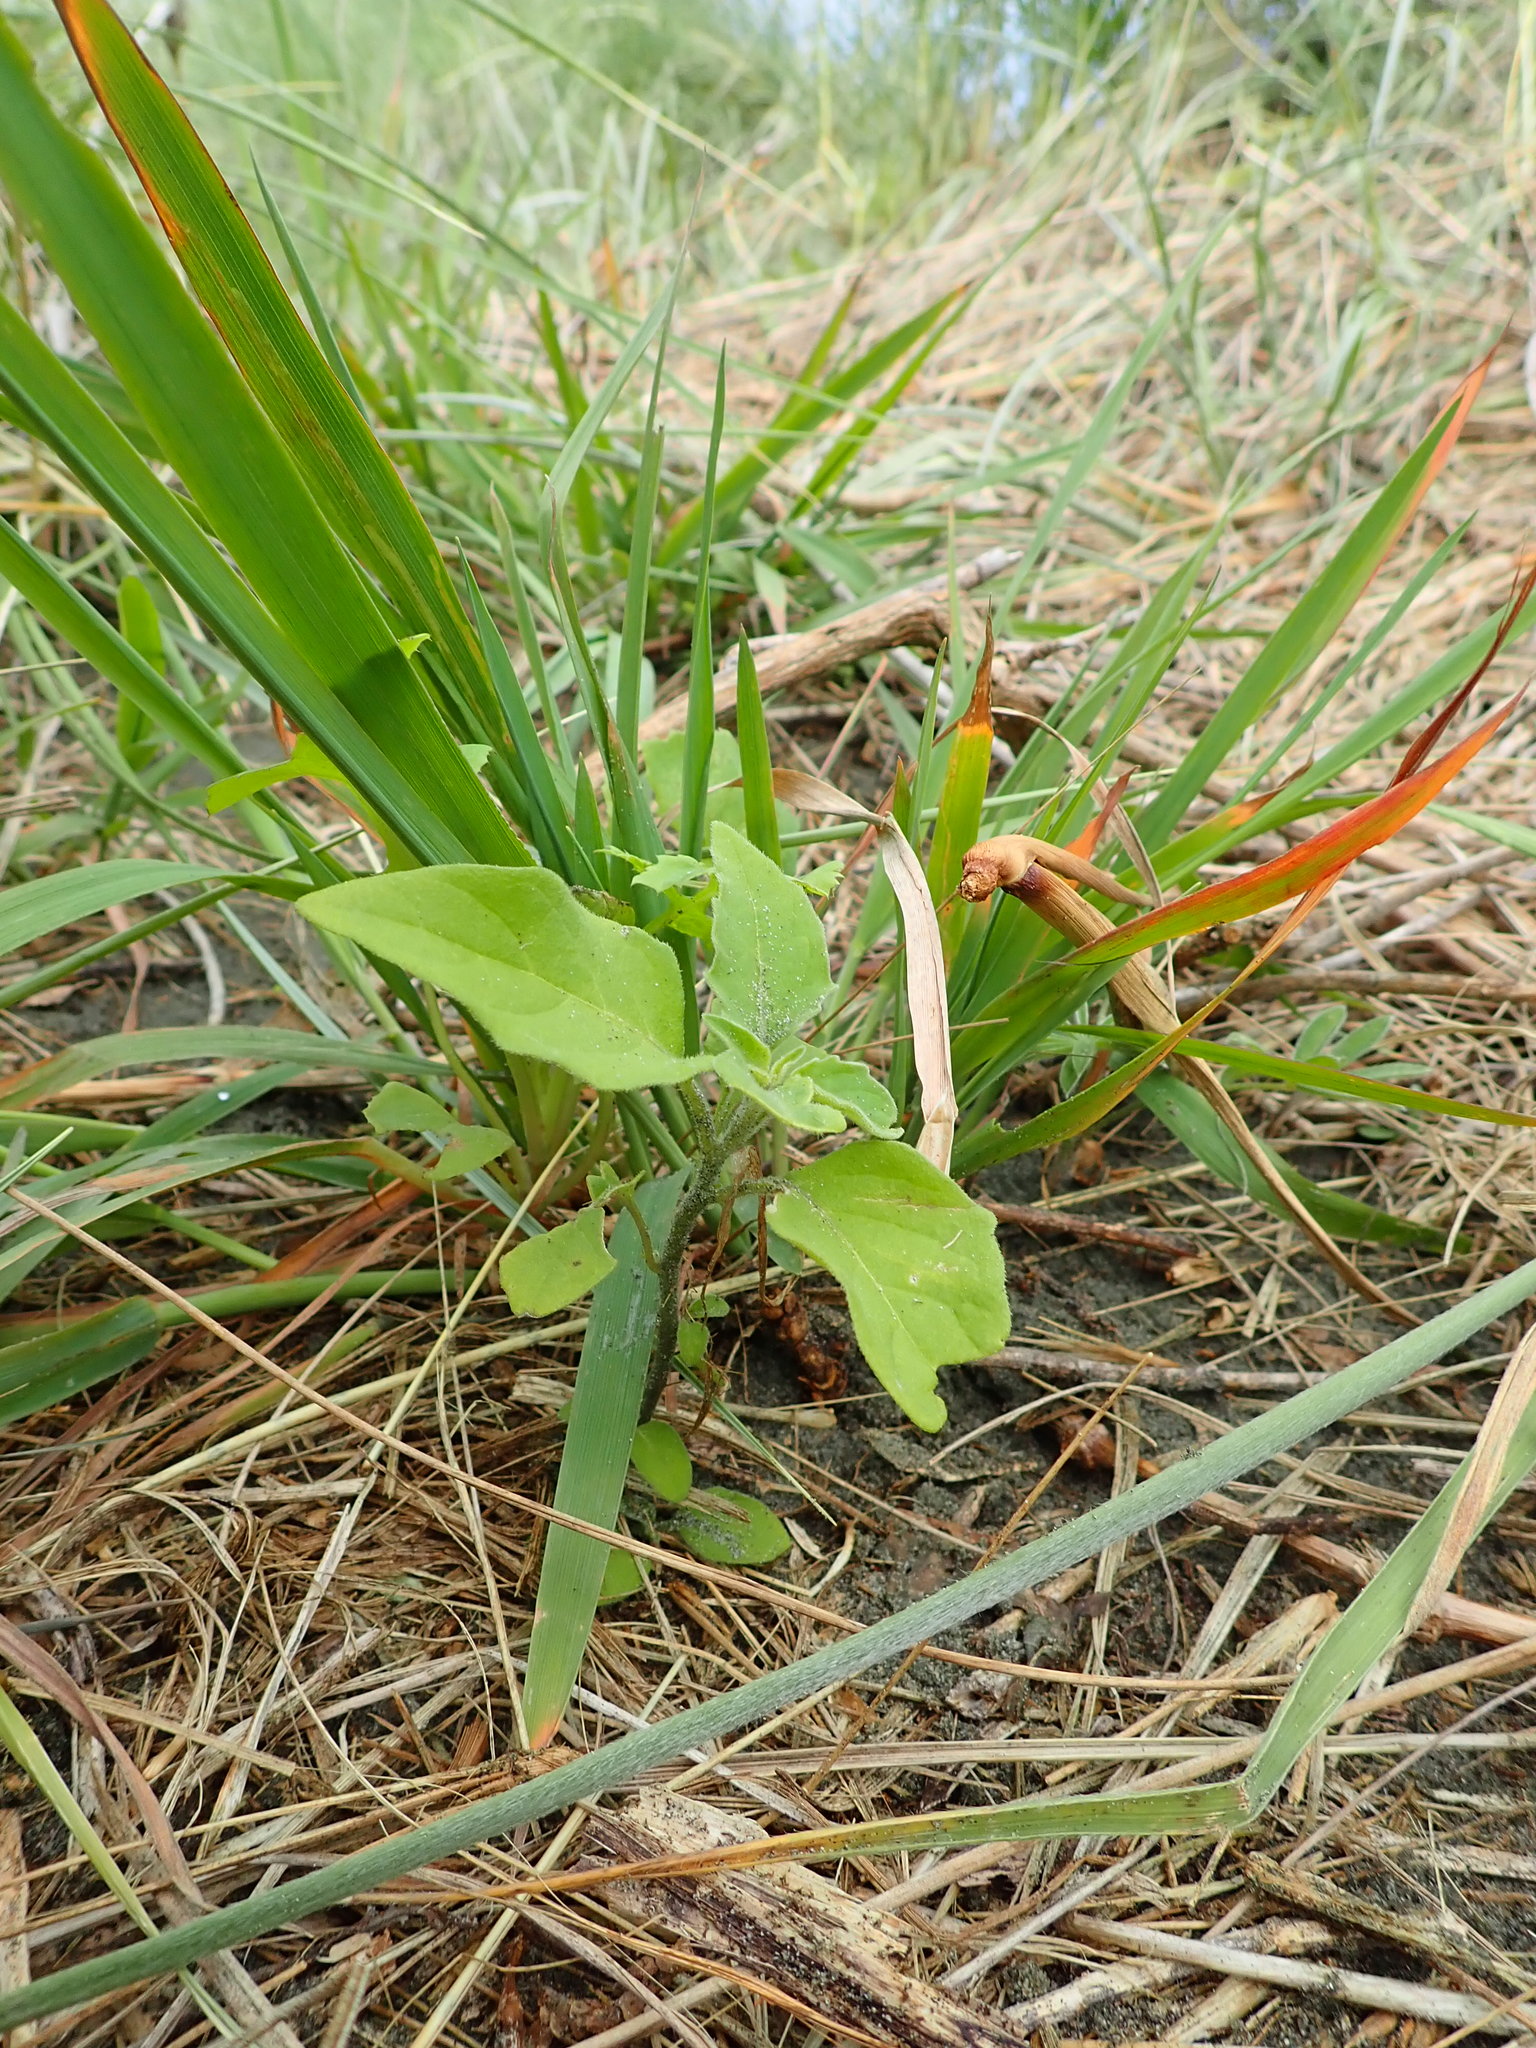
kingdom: Plantae
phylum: Tracheophyta
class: Magnoliopsida
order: Solanales
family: Solanaceae
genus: Solanum
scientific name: Solanum chenopodioides
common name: Tall nightshade
